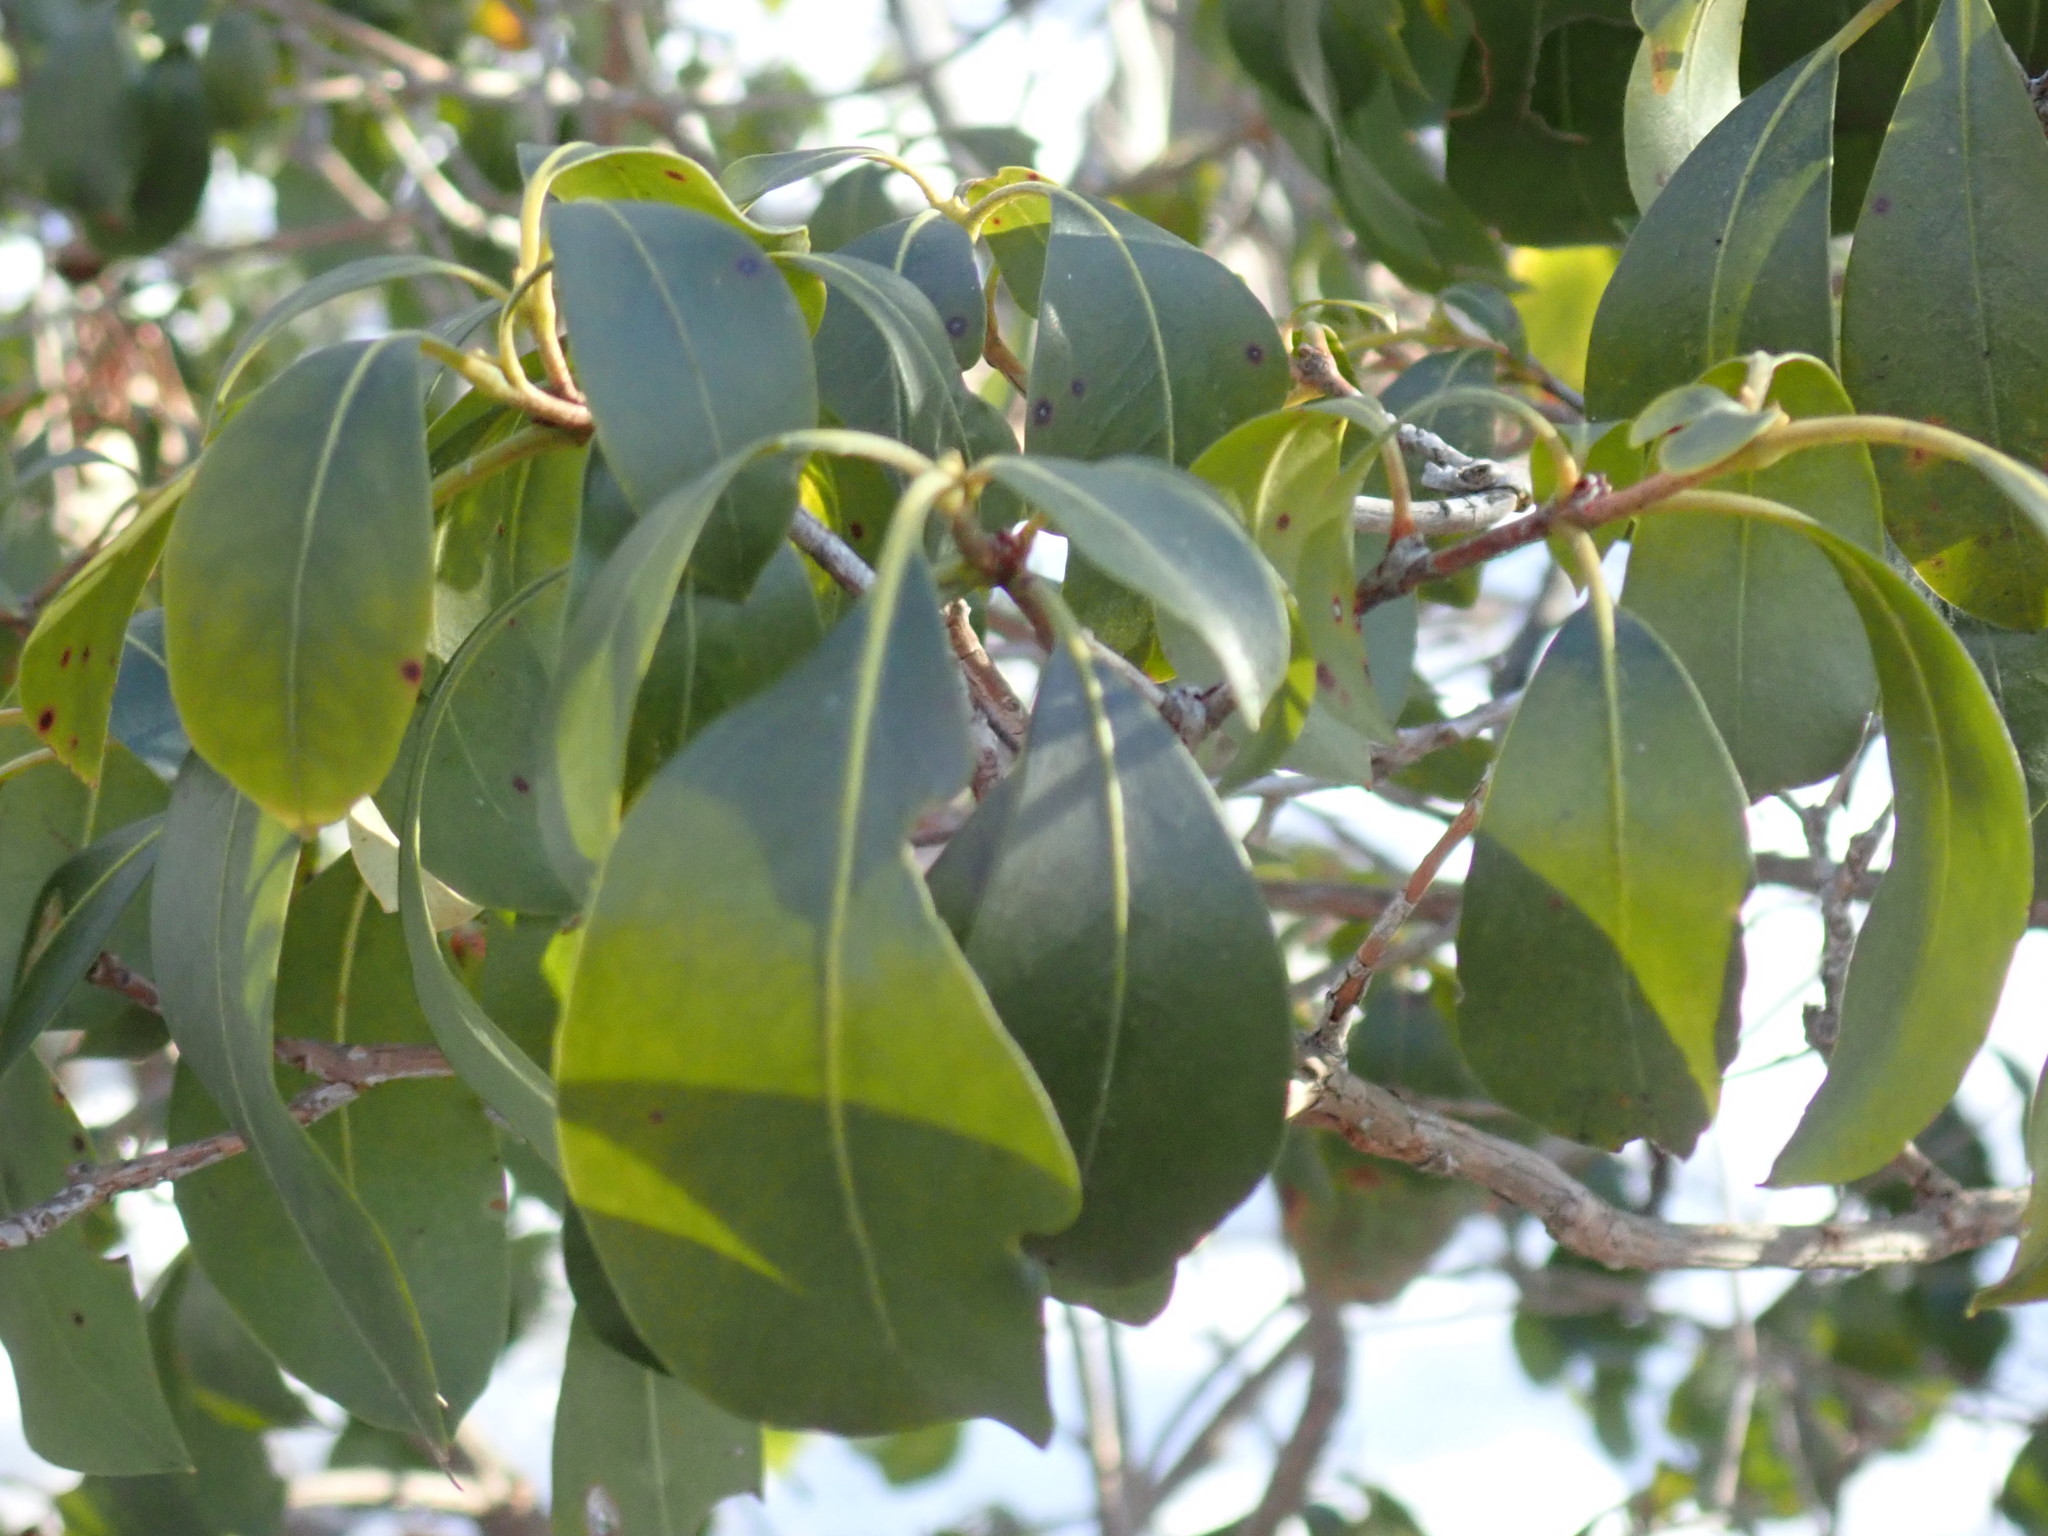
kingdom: Plantae
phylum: Tracheophyta
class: Magnoliopsida
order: Ericales
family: Ericaceae
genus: Kalmia
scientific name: Kalmia latifolia
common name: Mountain-laurel
